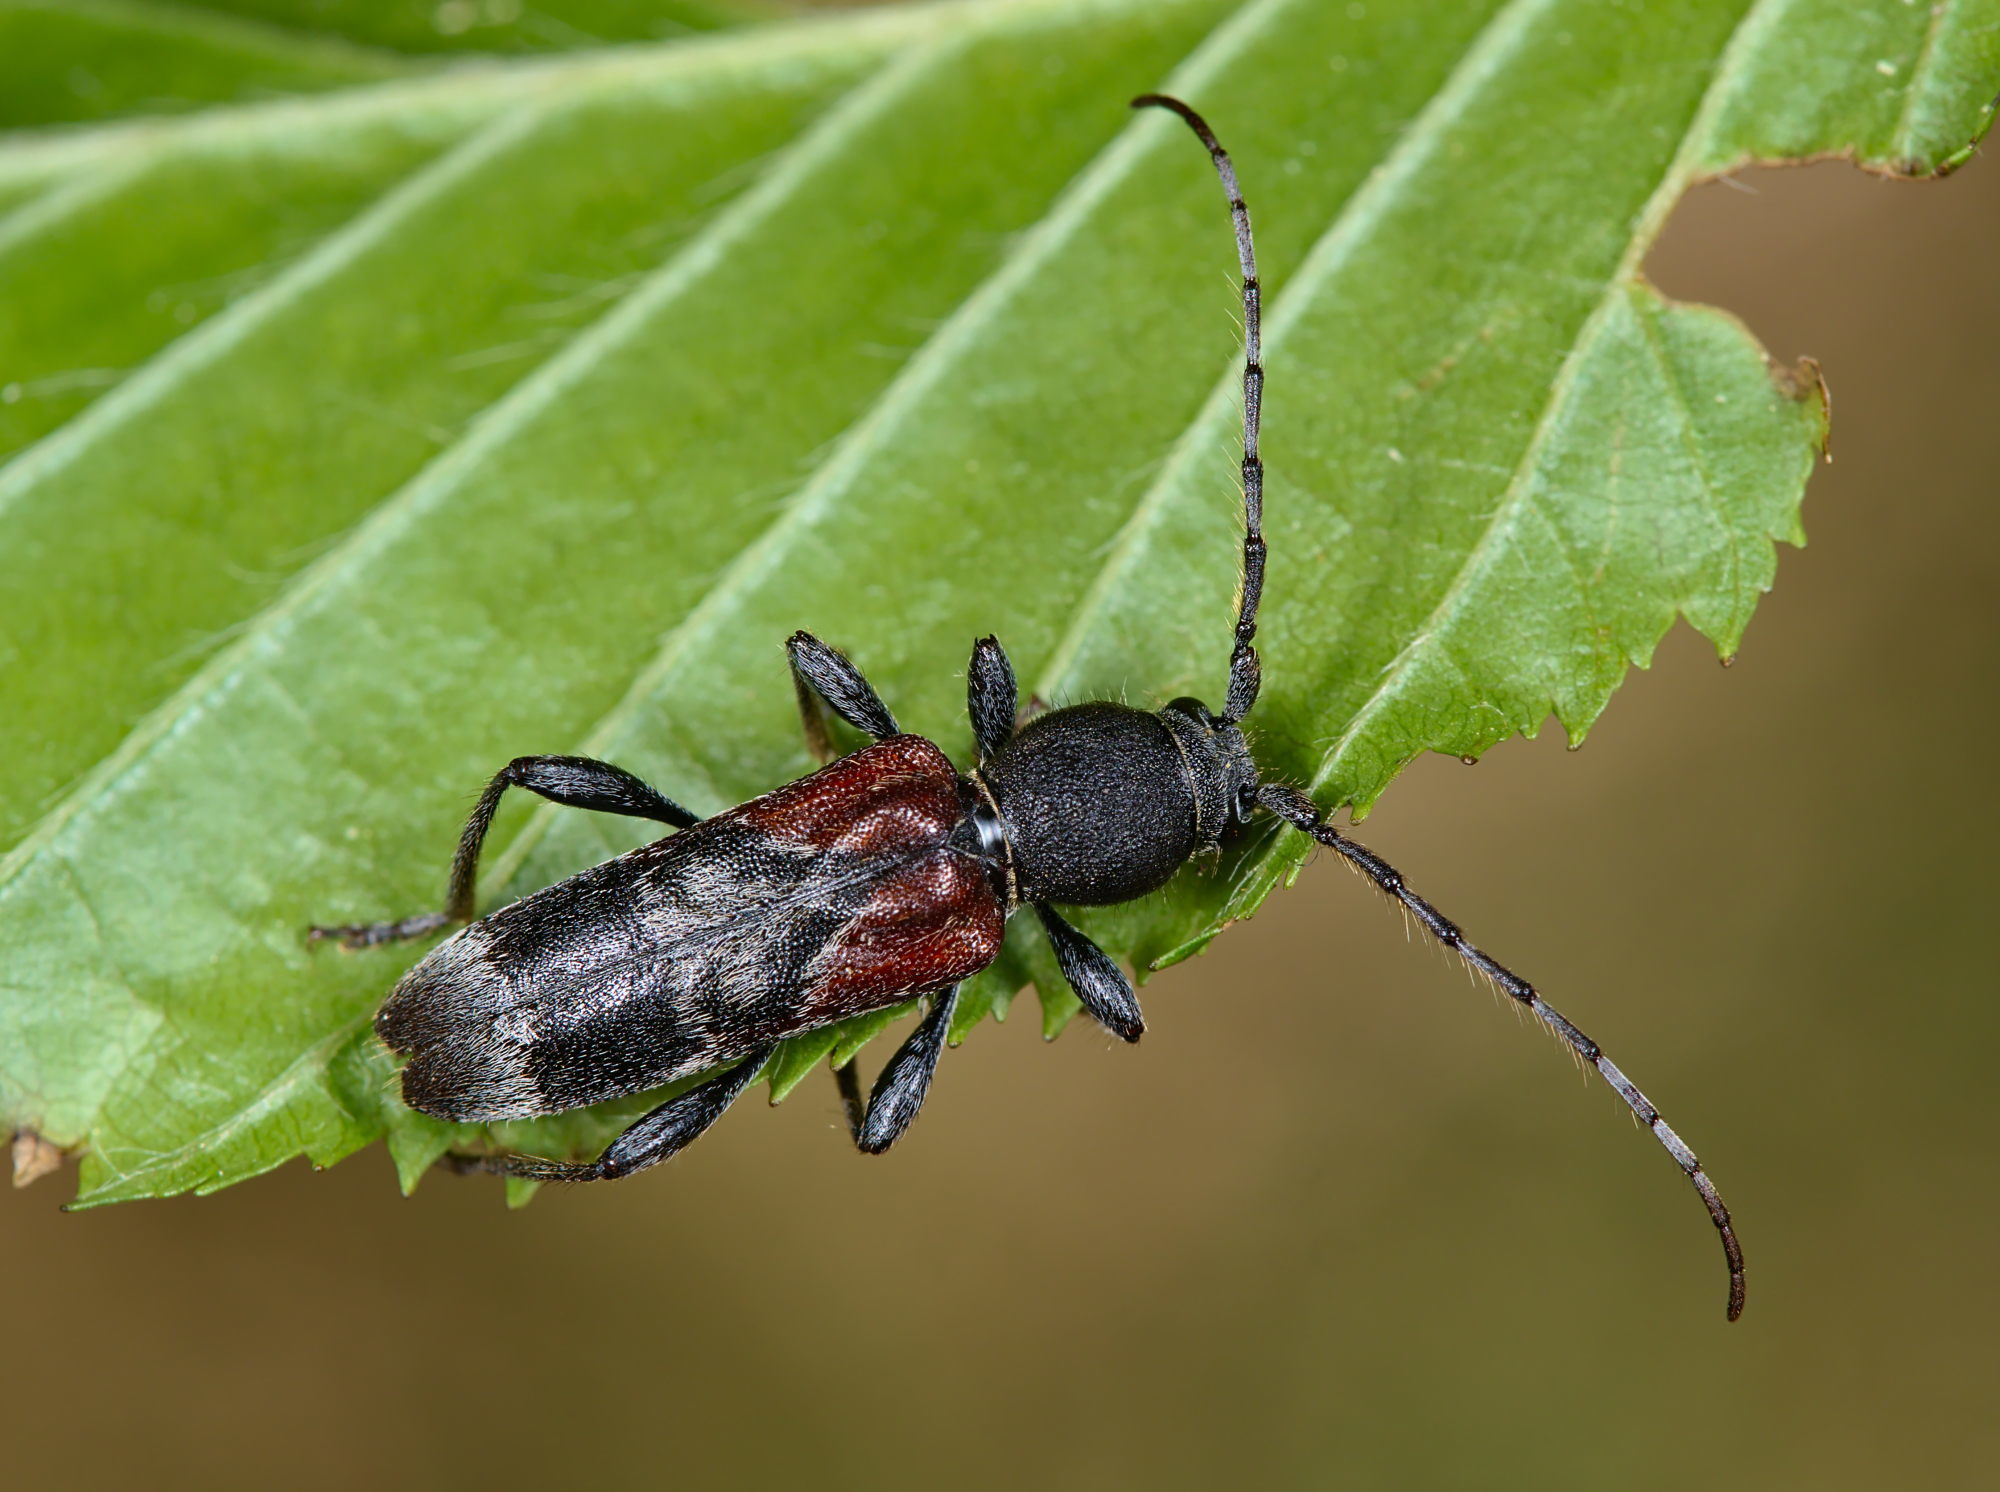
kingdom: Animalia
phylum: Arthropoda
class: Insecta
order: Coleoptera
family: Cerambycidae
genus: Anaglyptus
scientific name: Anaglyptus mysticus
